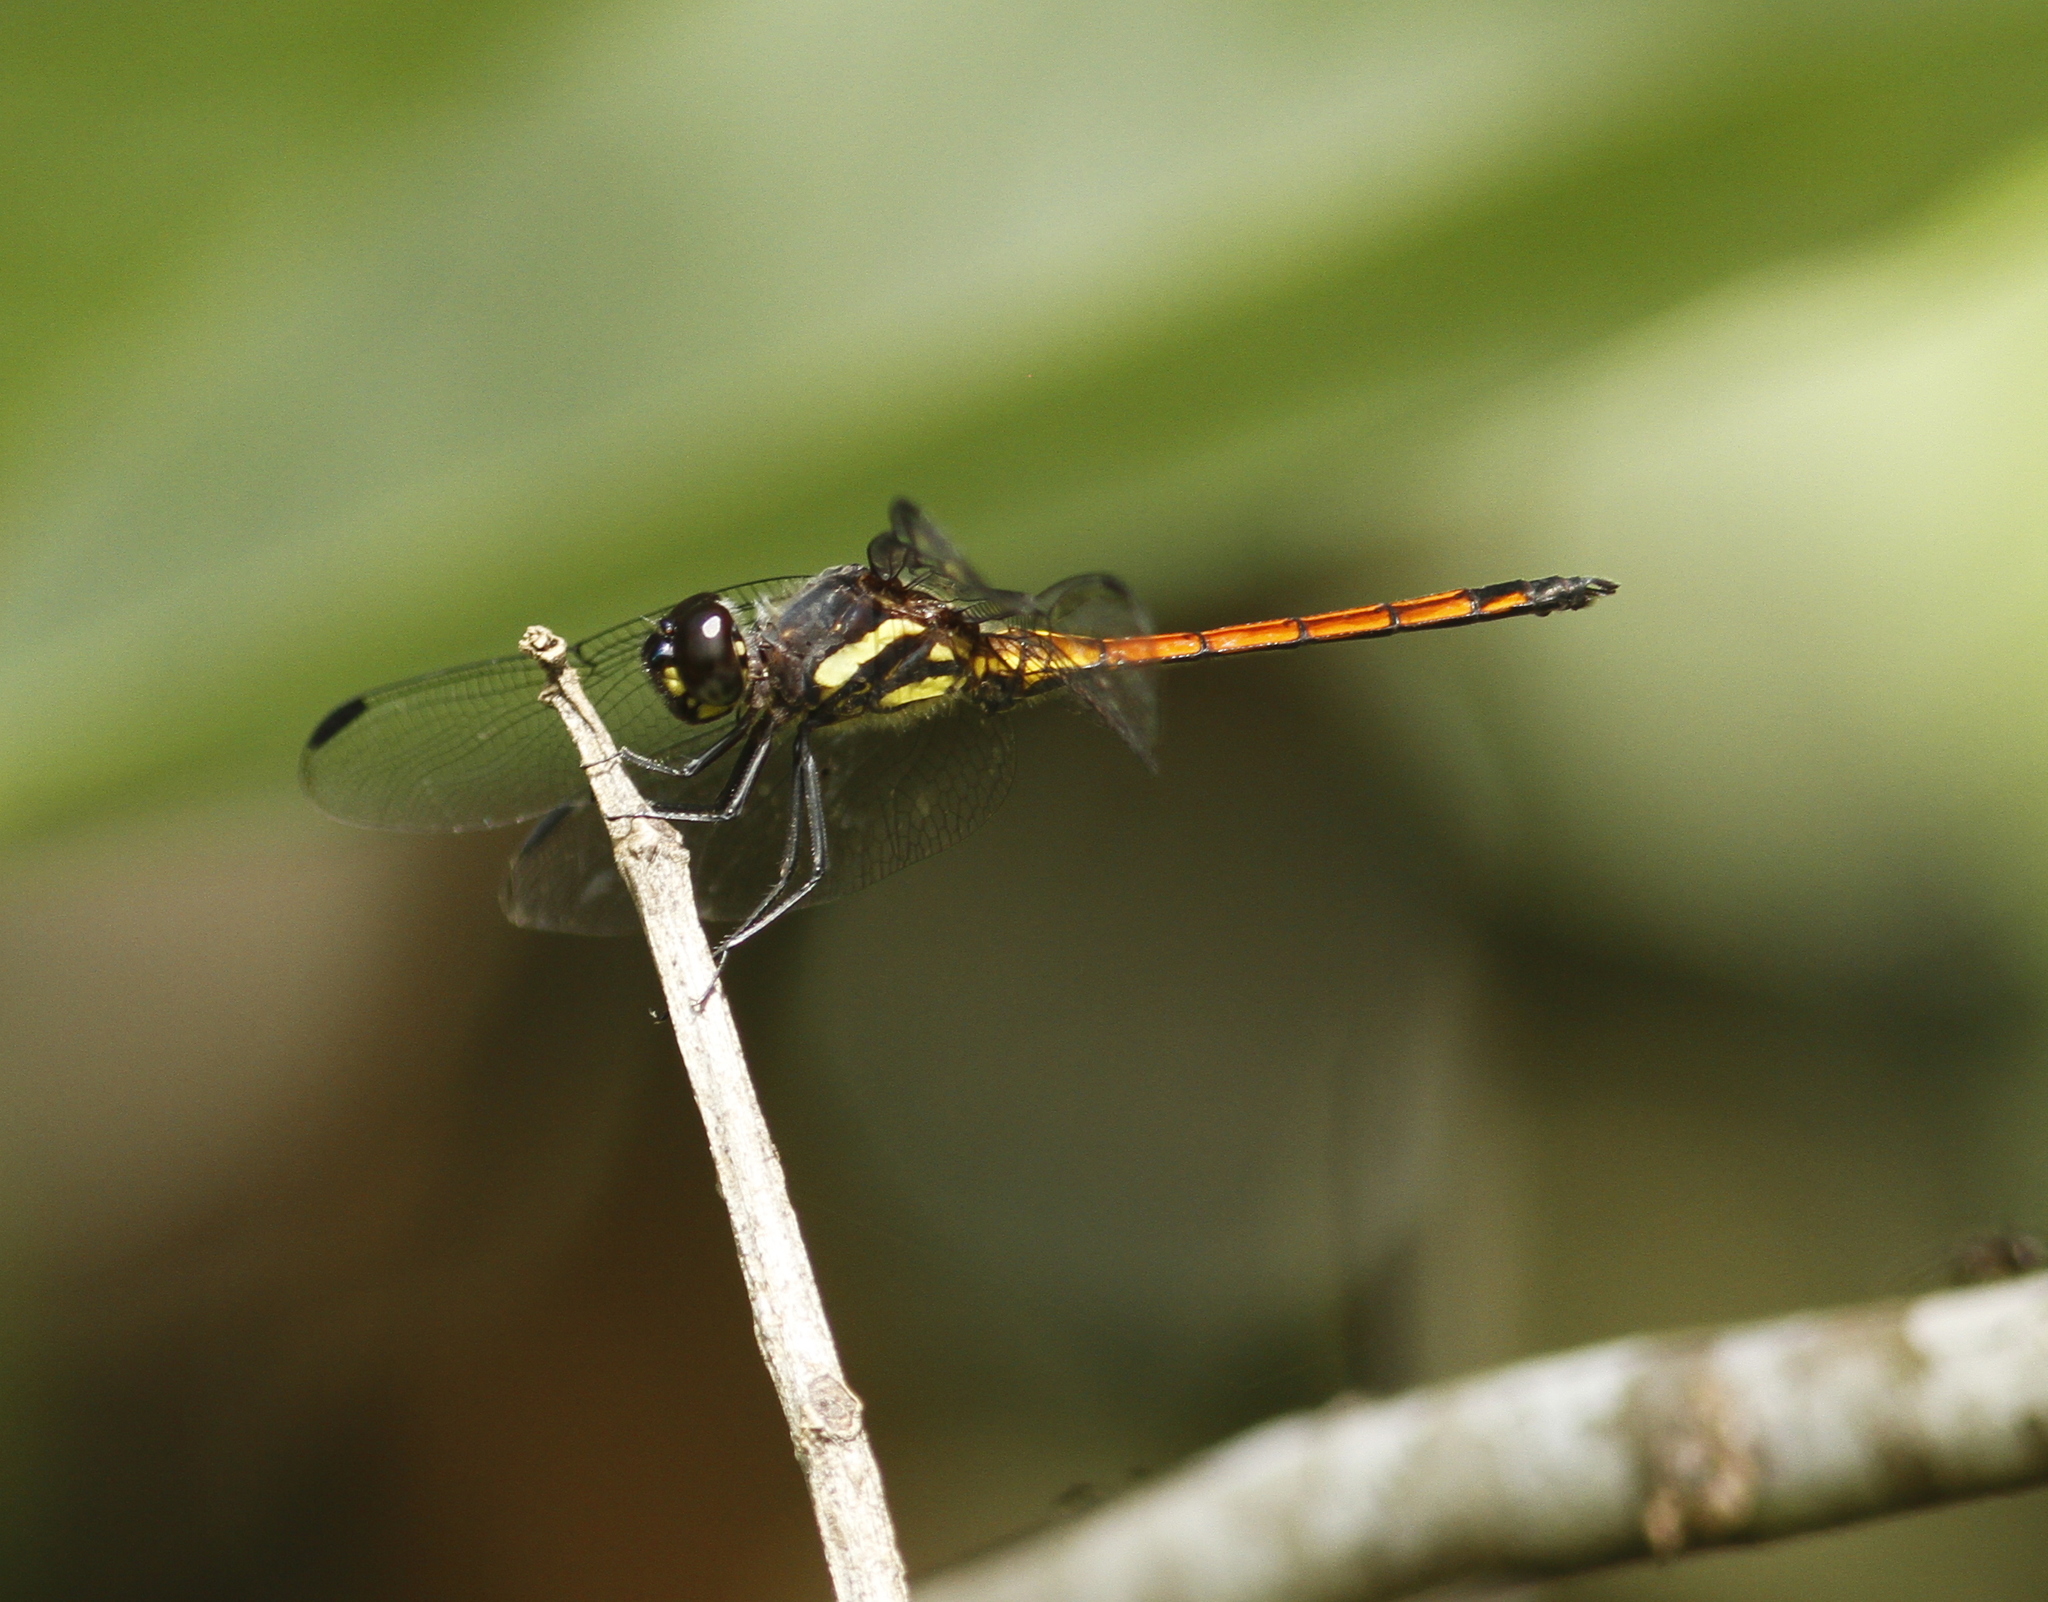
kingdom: Animalia
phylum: Arthropoda
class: Insecta
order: Odonata
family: Libellulidae
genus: Orthemis
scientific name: Orthemis cultriformis
